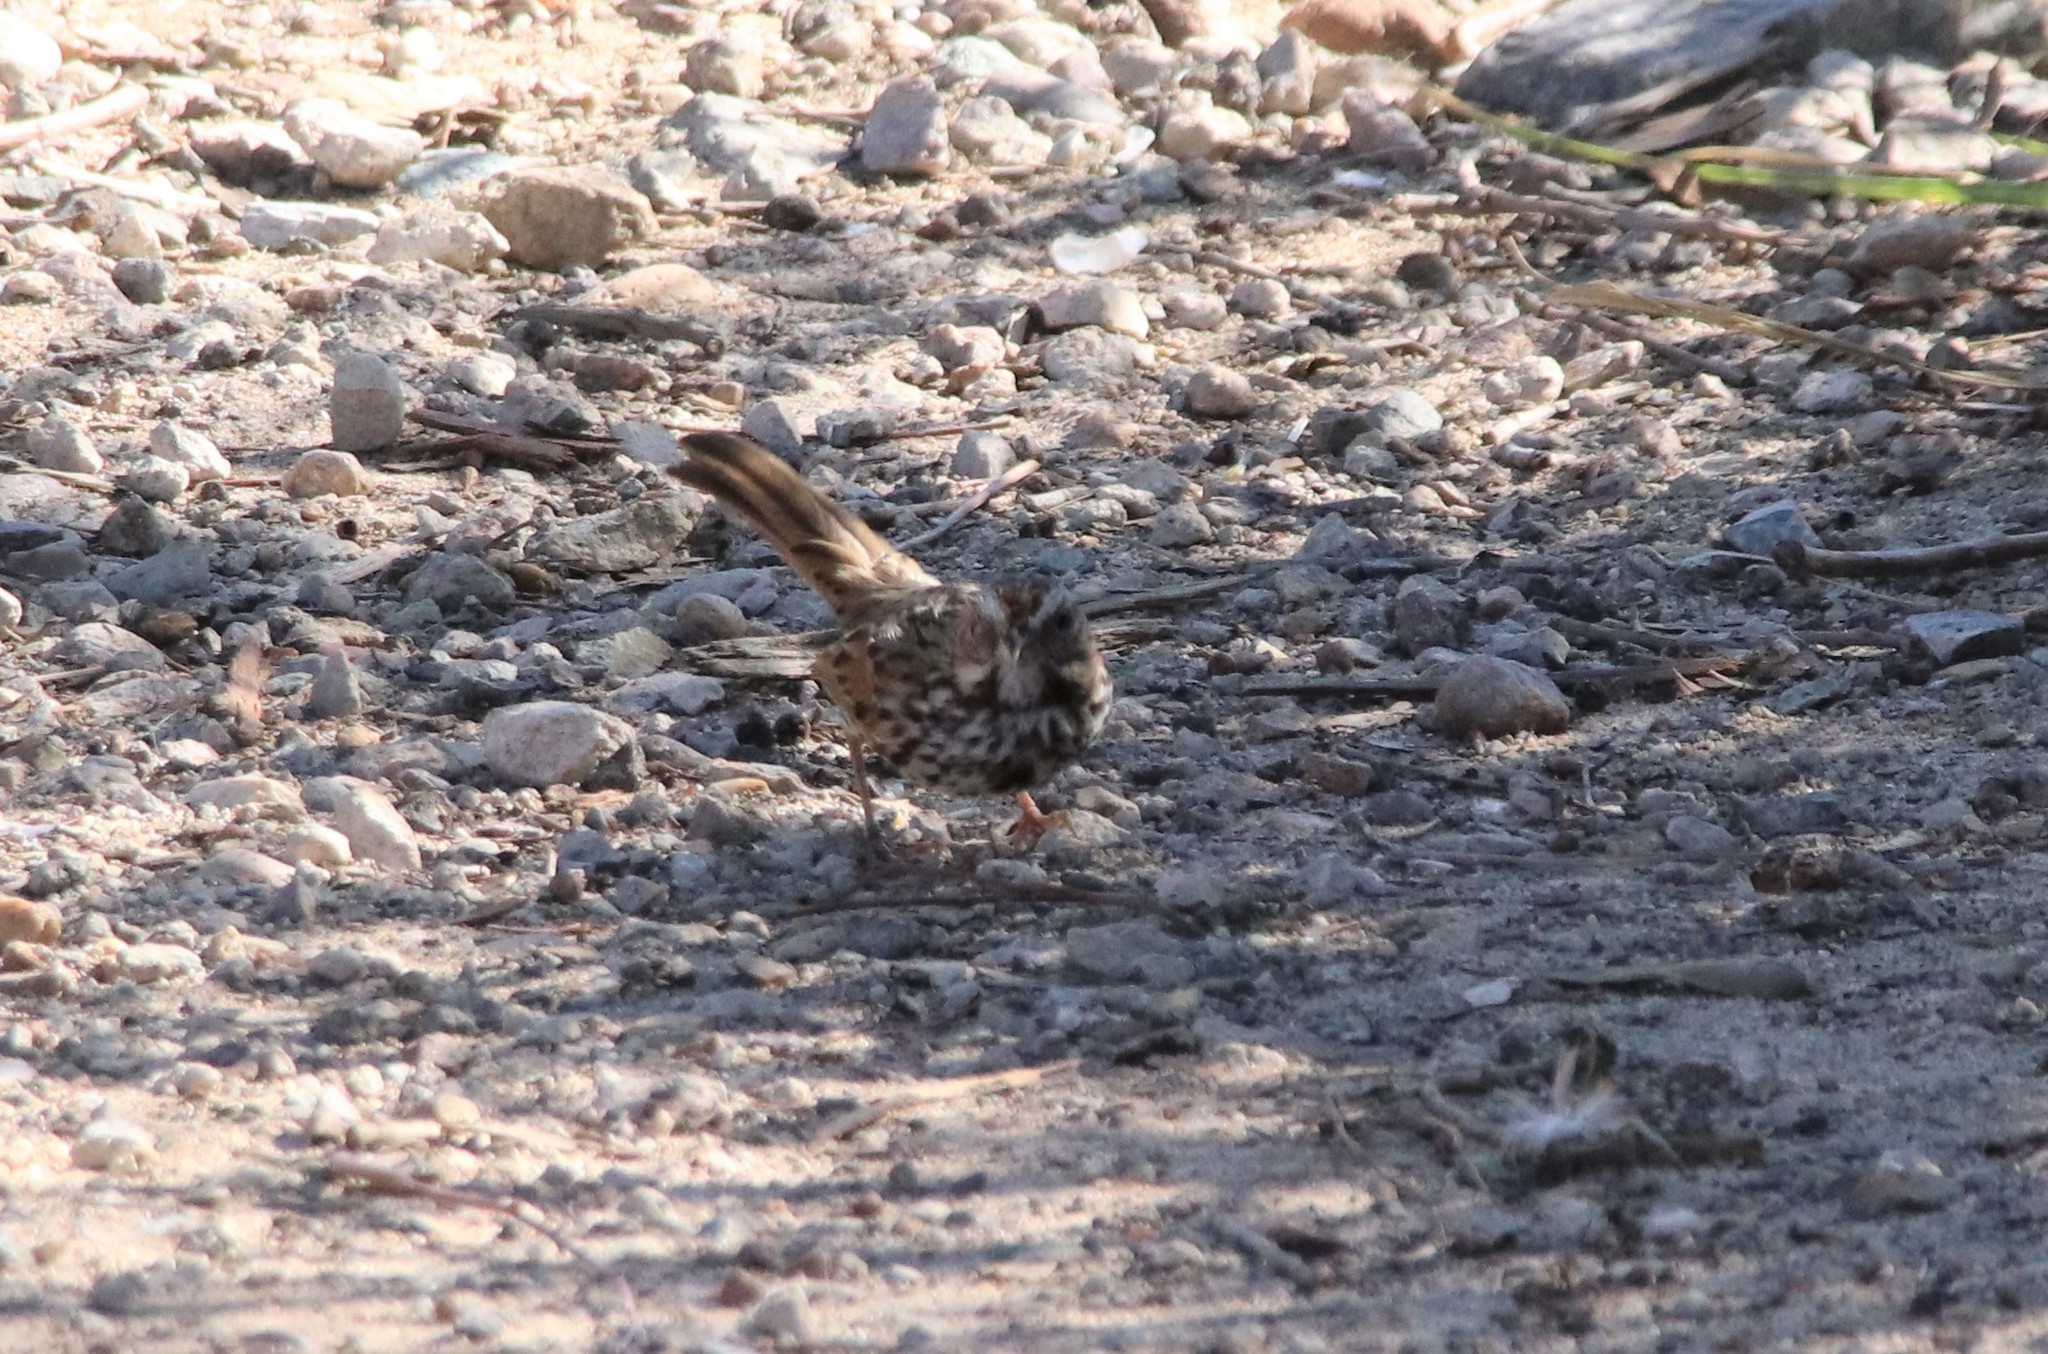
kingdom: Animalia
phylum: Chordata
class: Aves
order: Passeriformes
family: Passerellidae
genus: Melospiza
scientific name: Melospiza melodia
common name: Song sparrow
